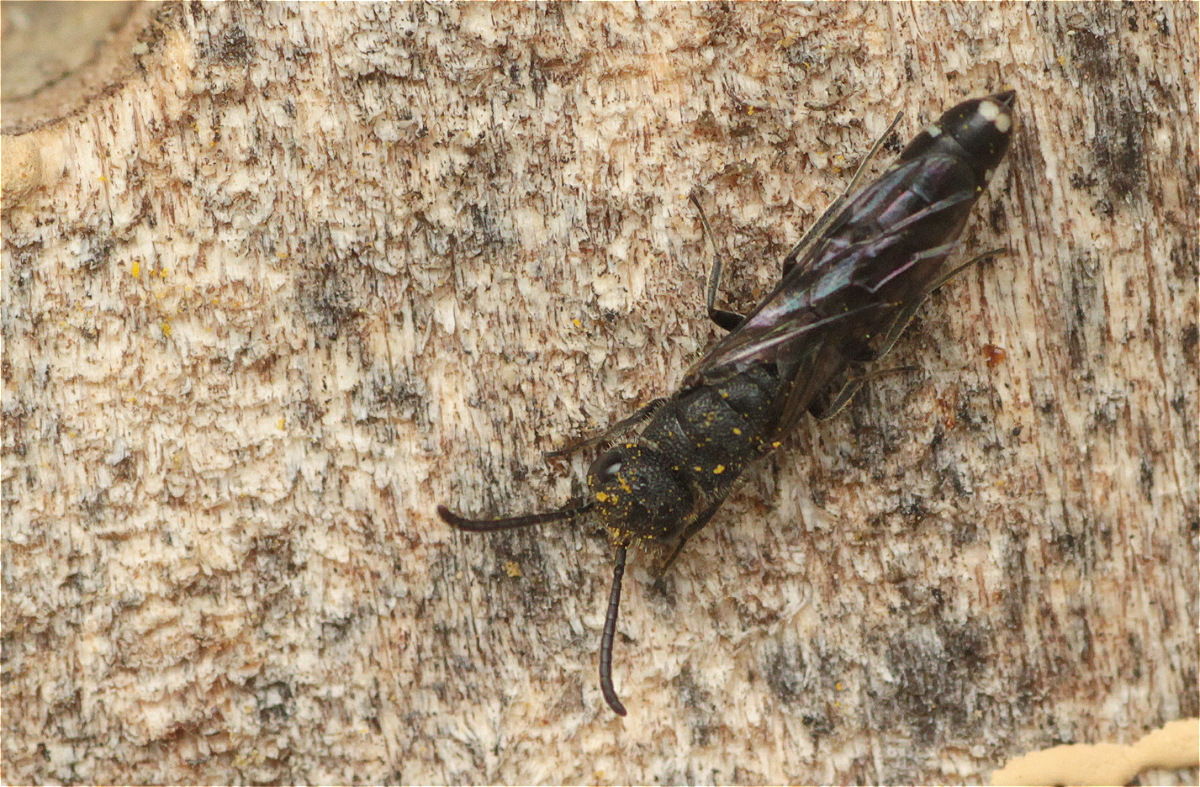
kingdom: Animalia
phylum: Arthropoda
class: Insecta
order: Hymenoptera
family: Sapygidae
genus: Sapygina
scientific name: Sapygina decemguttata
